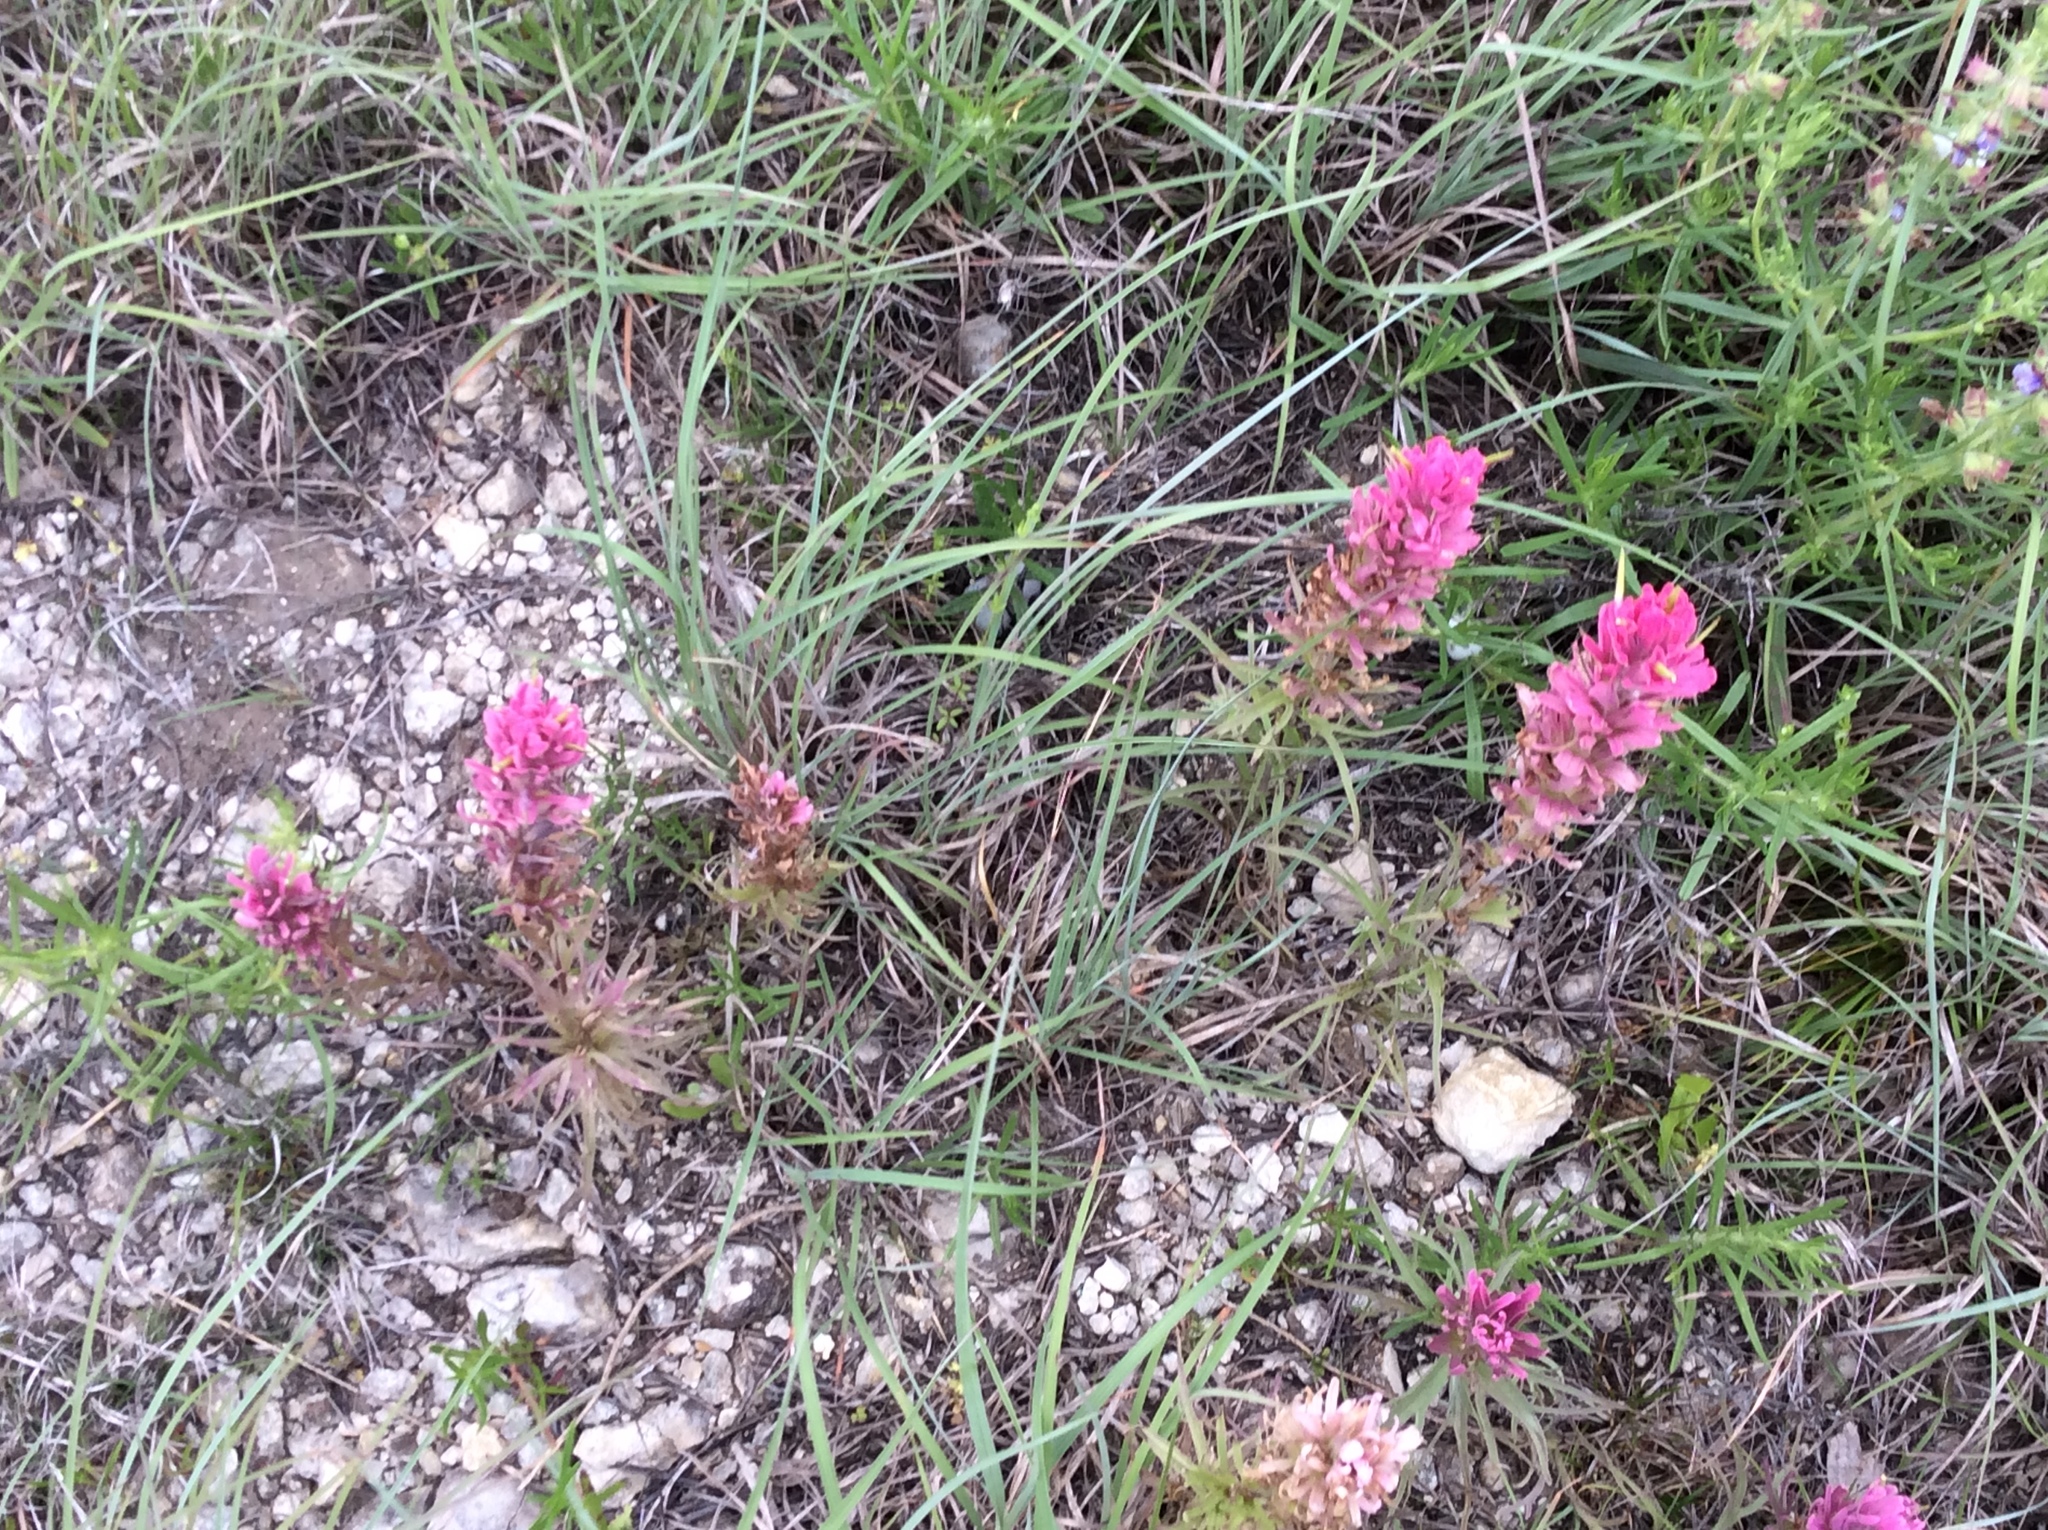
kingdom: Plantae
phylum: Tracheophyta
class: Magnoliopsida
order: Lamiales
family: Orobanchaceae
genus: Castilleja
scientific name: Castilleja purpurea
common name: Plains paintbrush
